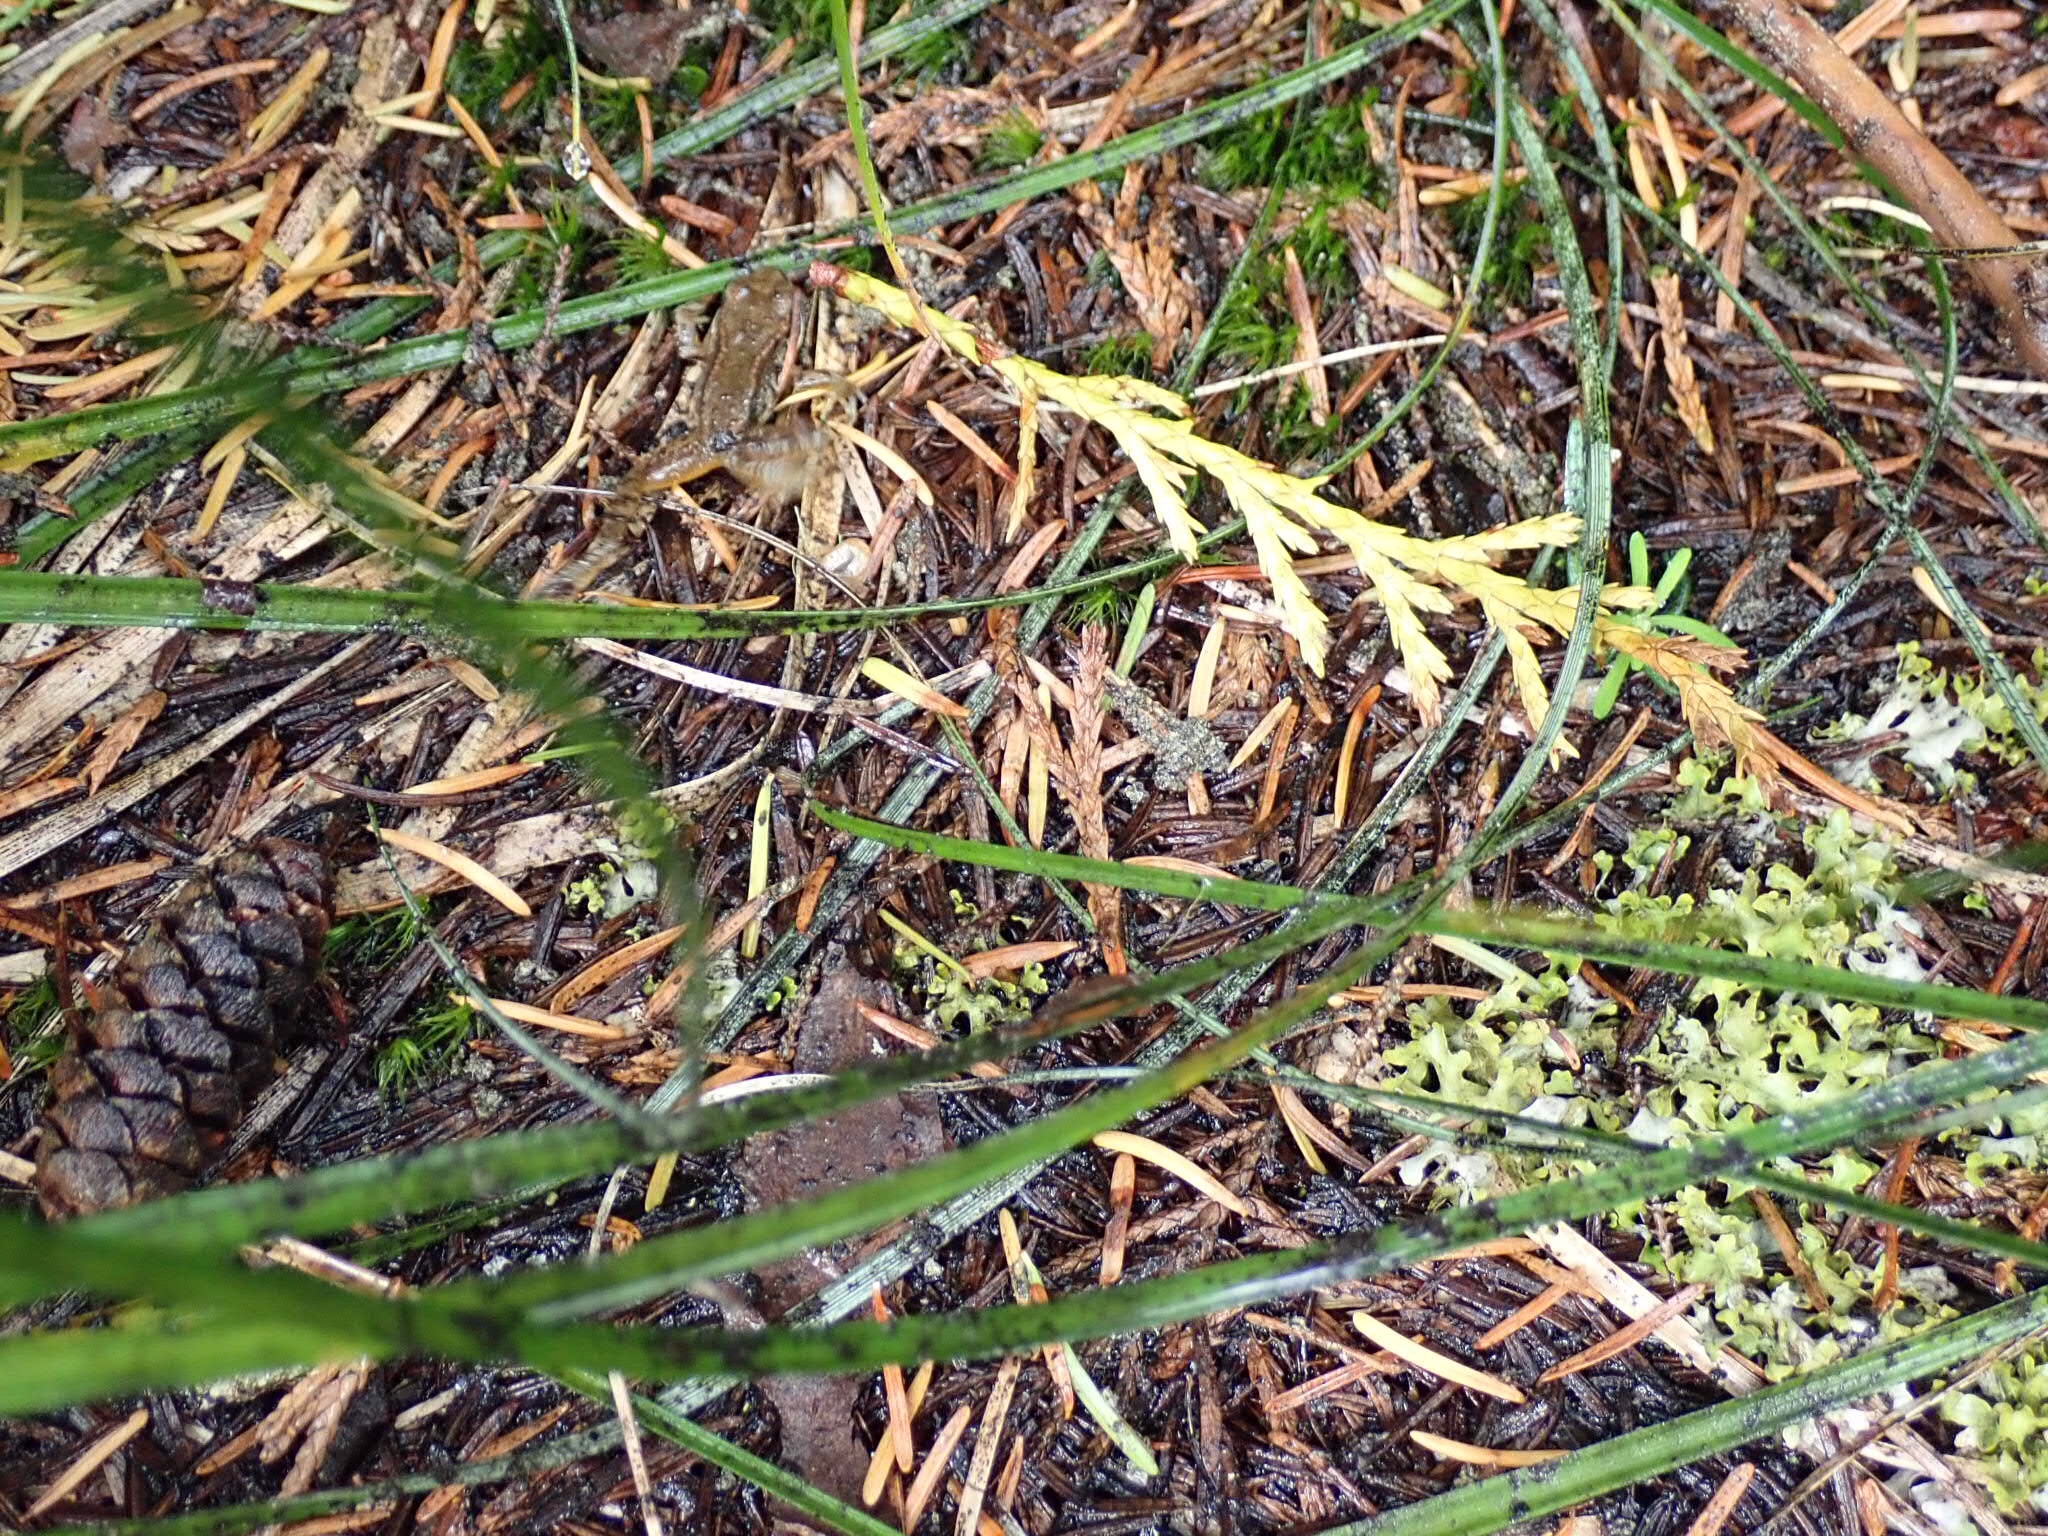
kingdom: Animalia
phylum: Chordata
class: Amphibia
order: Anura
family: Ranidae
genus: Rana
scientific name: Rana cascadae
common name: Cascades frog
